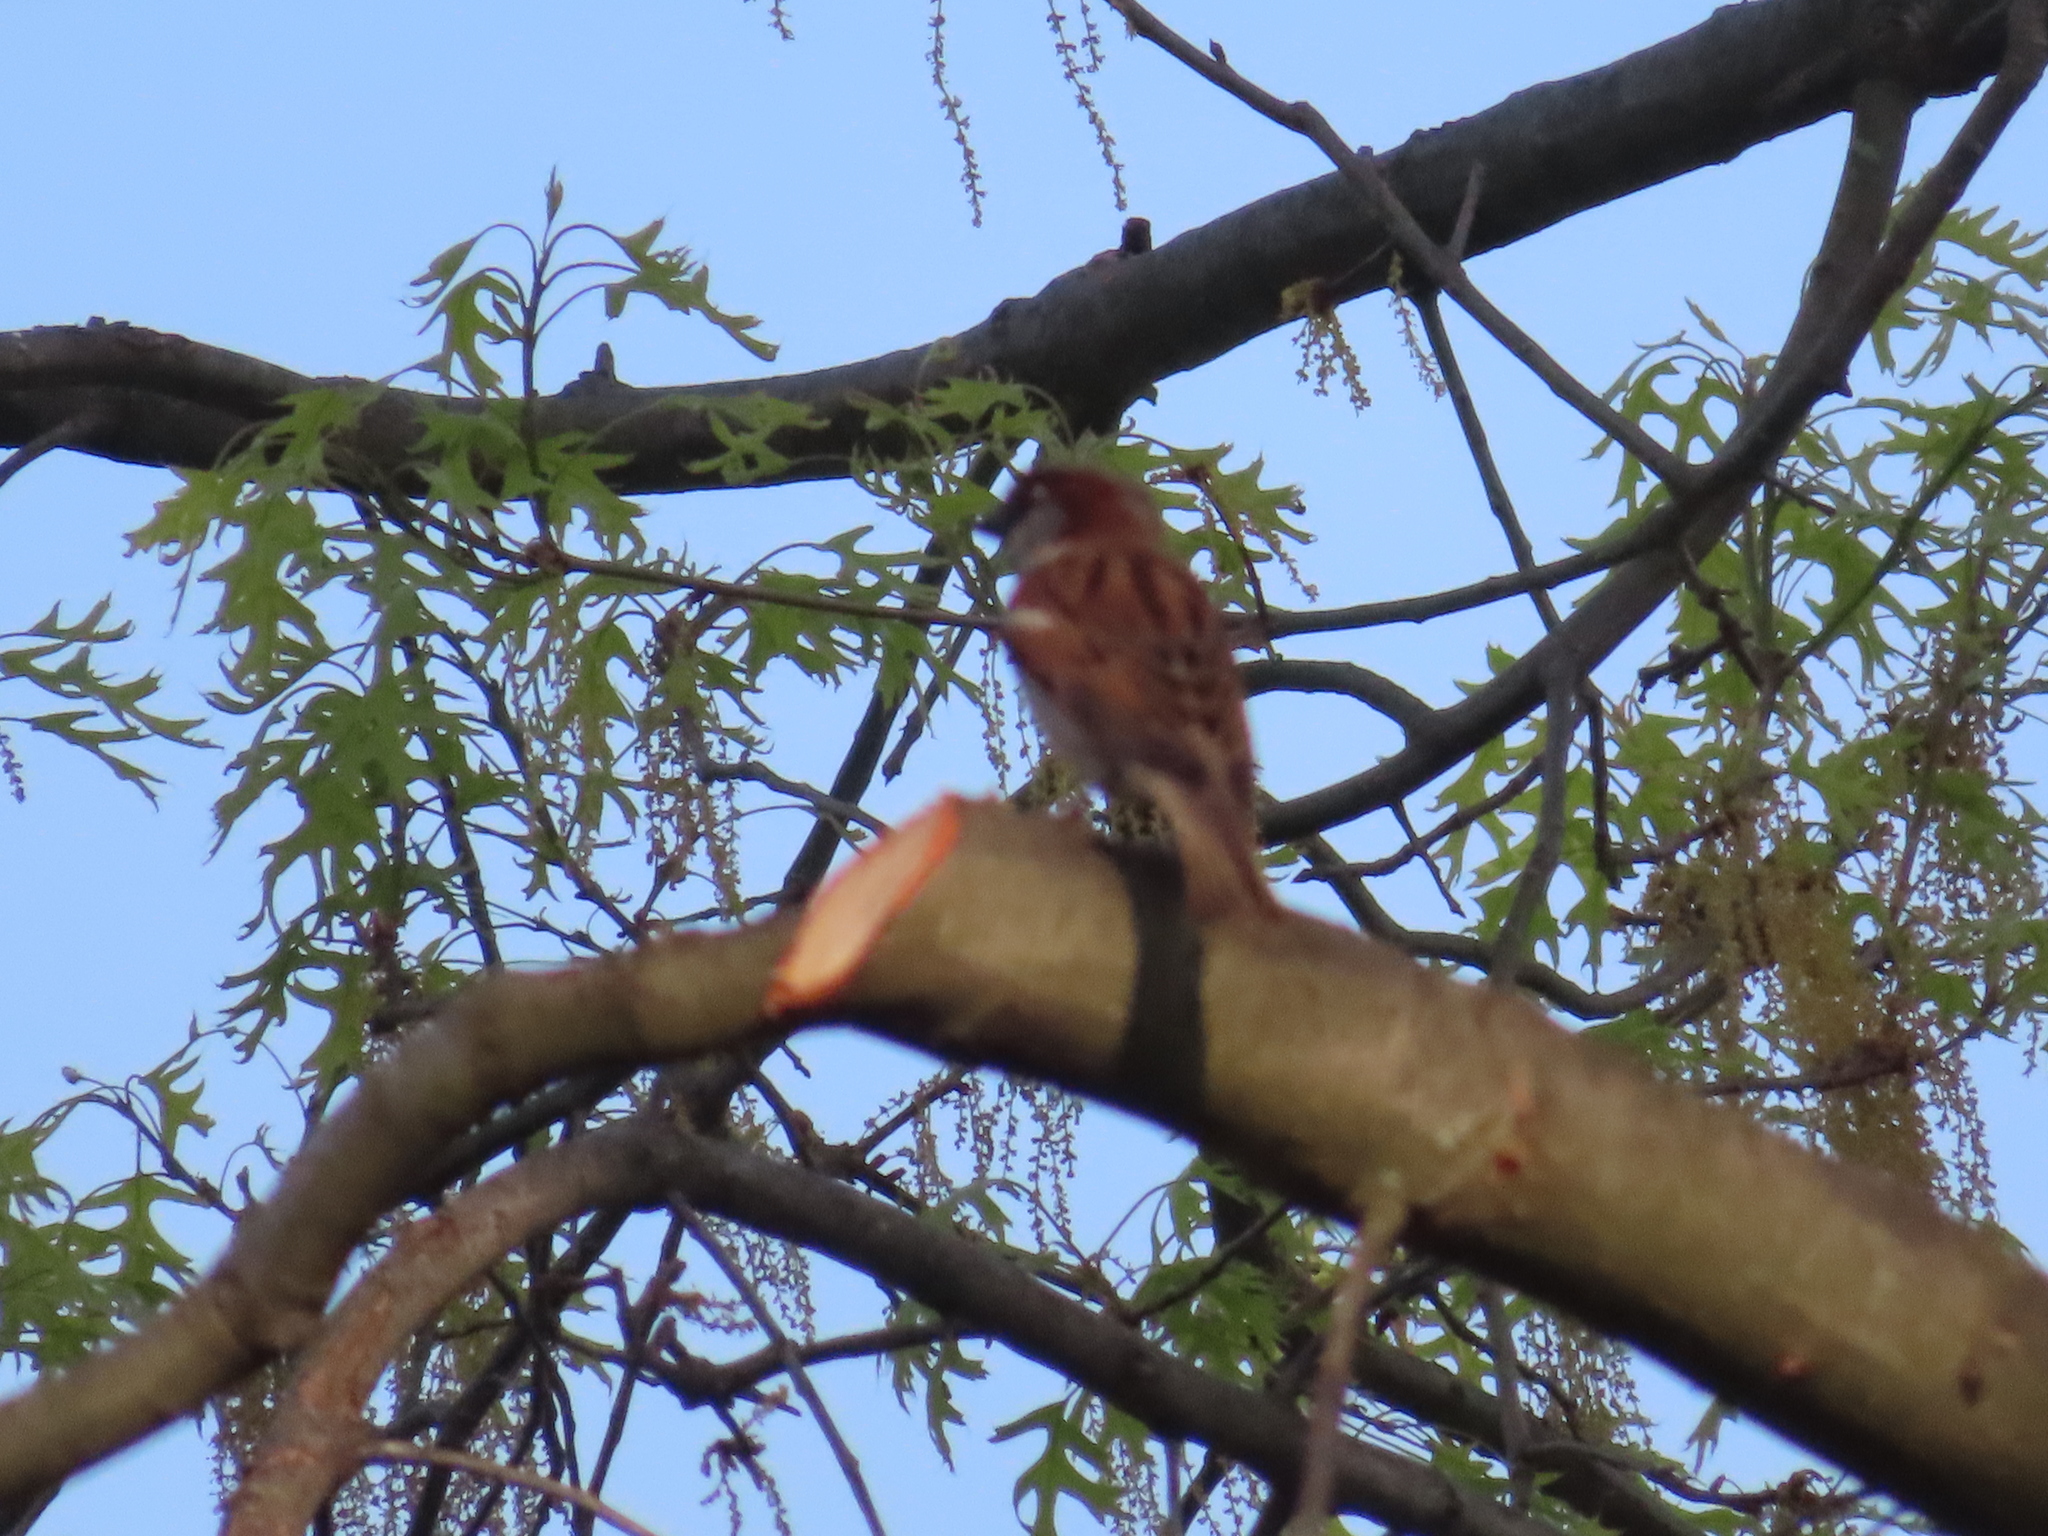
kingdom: Animalia
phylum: Chordata
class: Aves
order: Passeriformes
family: Passeridae
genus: Passer
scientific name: Passer domesticus
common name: House sparrow
